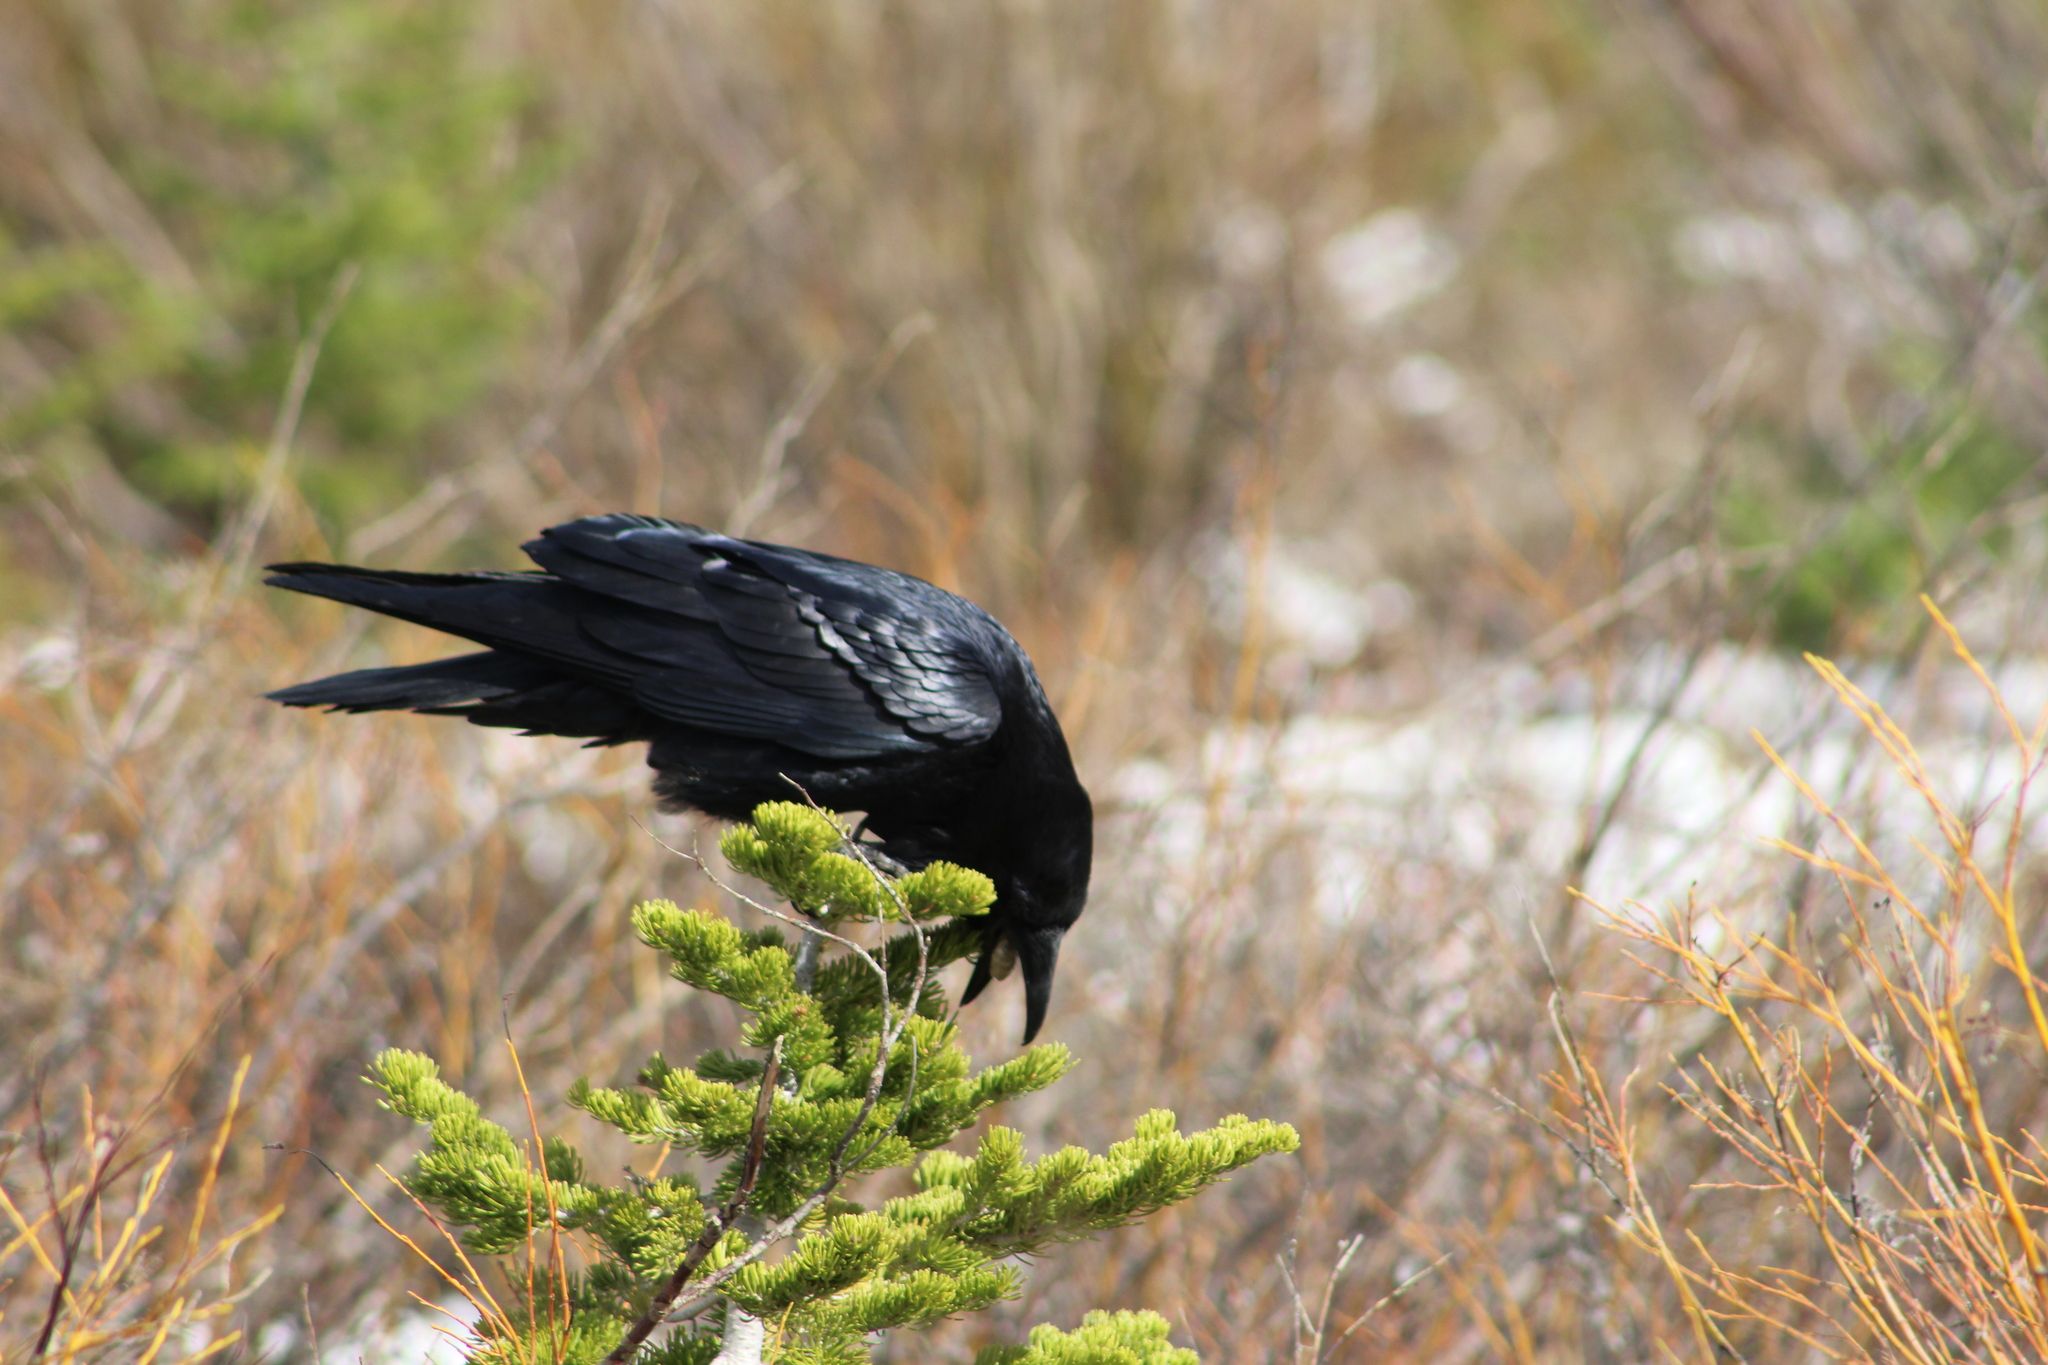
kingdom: Animalia
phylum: Chordata
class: Aves
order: Passeriformes
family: Corvidae
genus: Corvus
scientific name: Corvus corax
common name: Common raven
